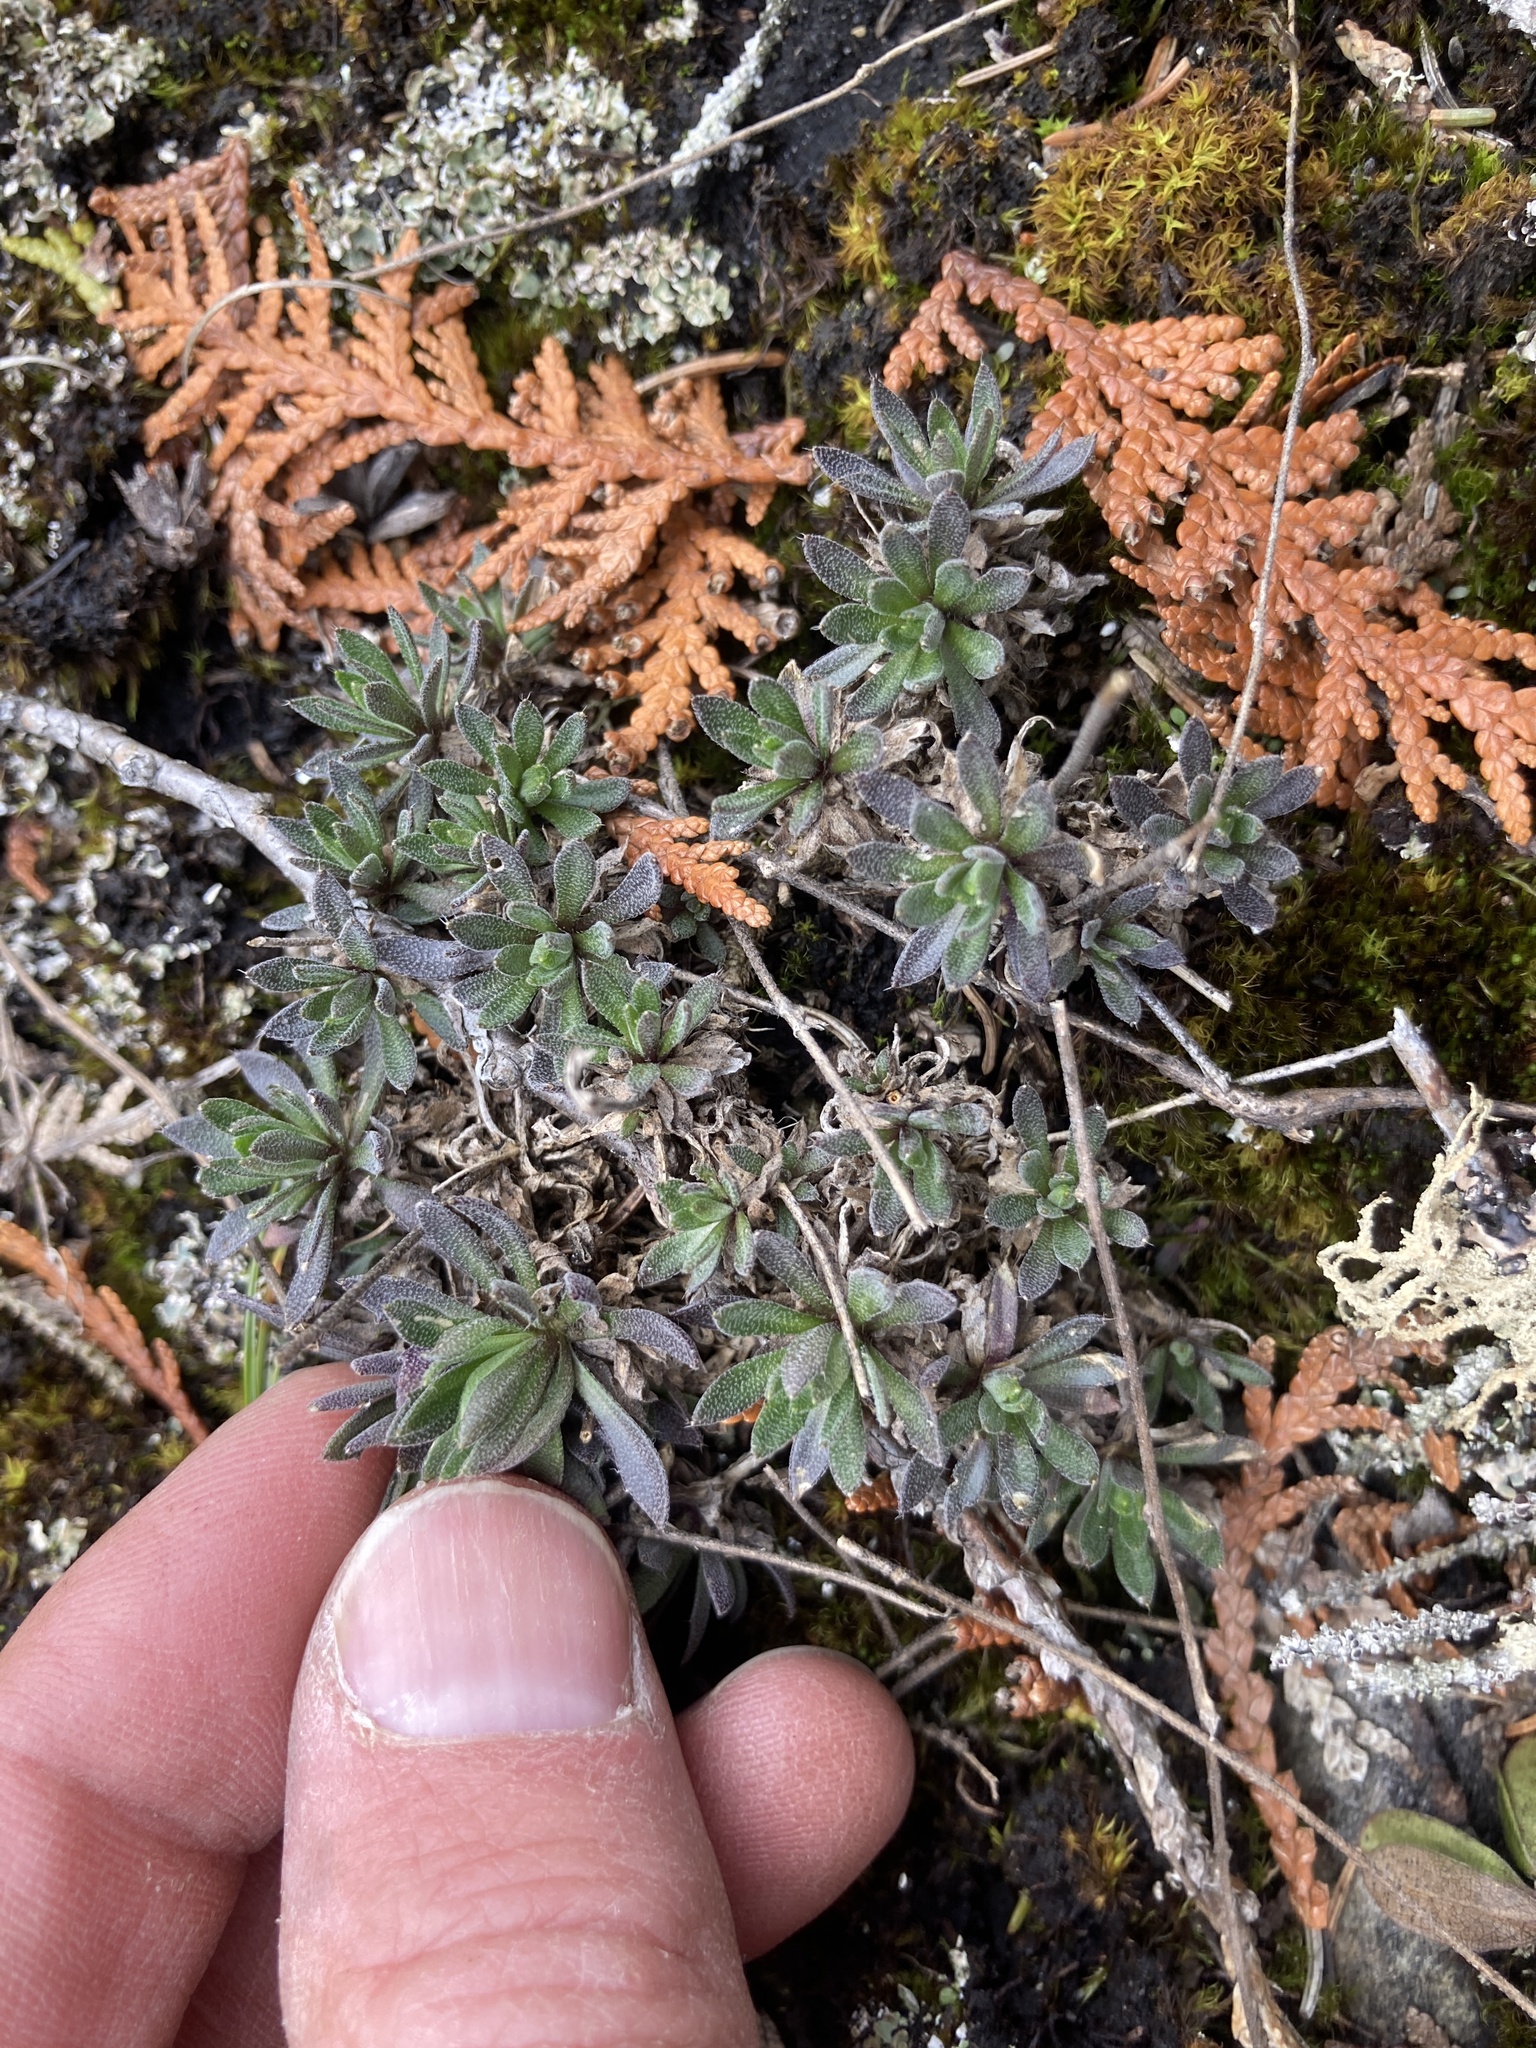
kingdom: Plantae
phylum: Tracheophyta
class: Magnoliopsida
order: Brassicales
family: Brassicaceae
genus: Draba
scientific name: Draba arabisans
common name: Rock draba
